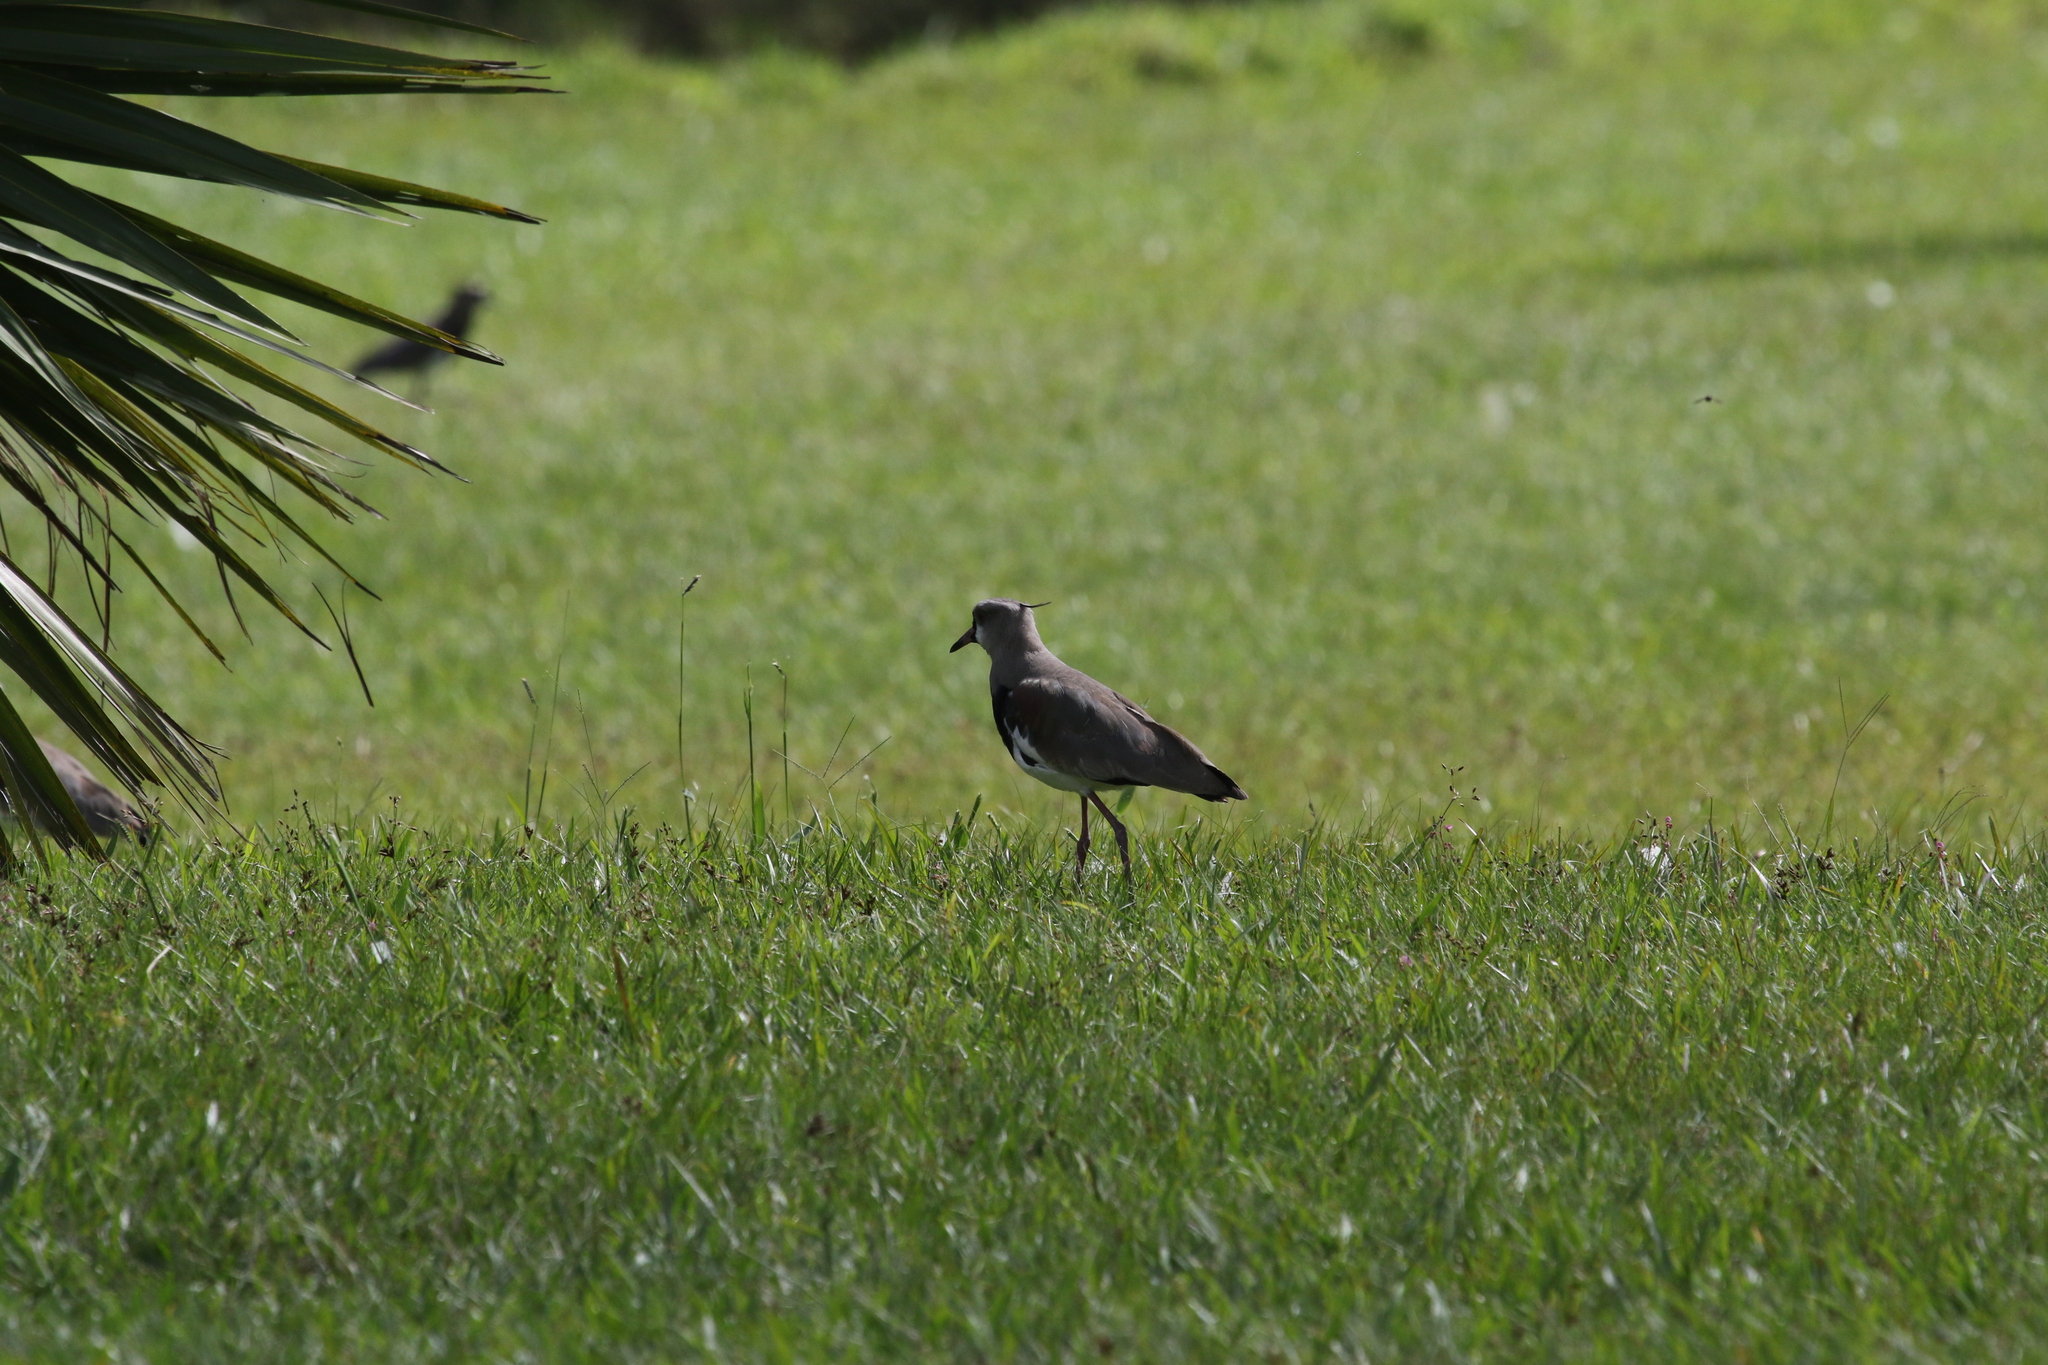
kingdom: Animalia
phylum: Chordata
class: Aves
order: Charadriiformes
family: Charadriidae
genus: Vanellus
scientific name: Vanellus chilensis
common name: Southern lapwing
